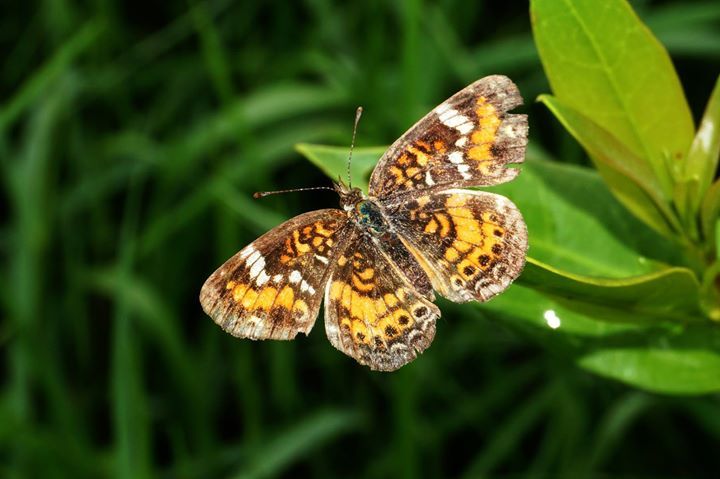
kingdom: Animalia
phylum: Arthropoda
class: Insecta
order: Lepidoptera
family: Nymphalidae
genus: Phyciodes
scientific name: Phyciodes phaon
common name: Phaon crescent
